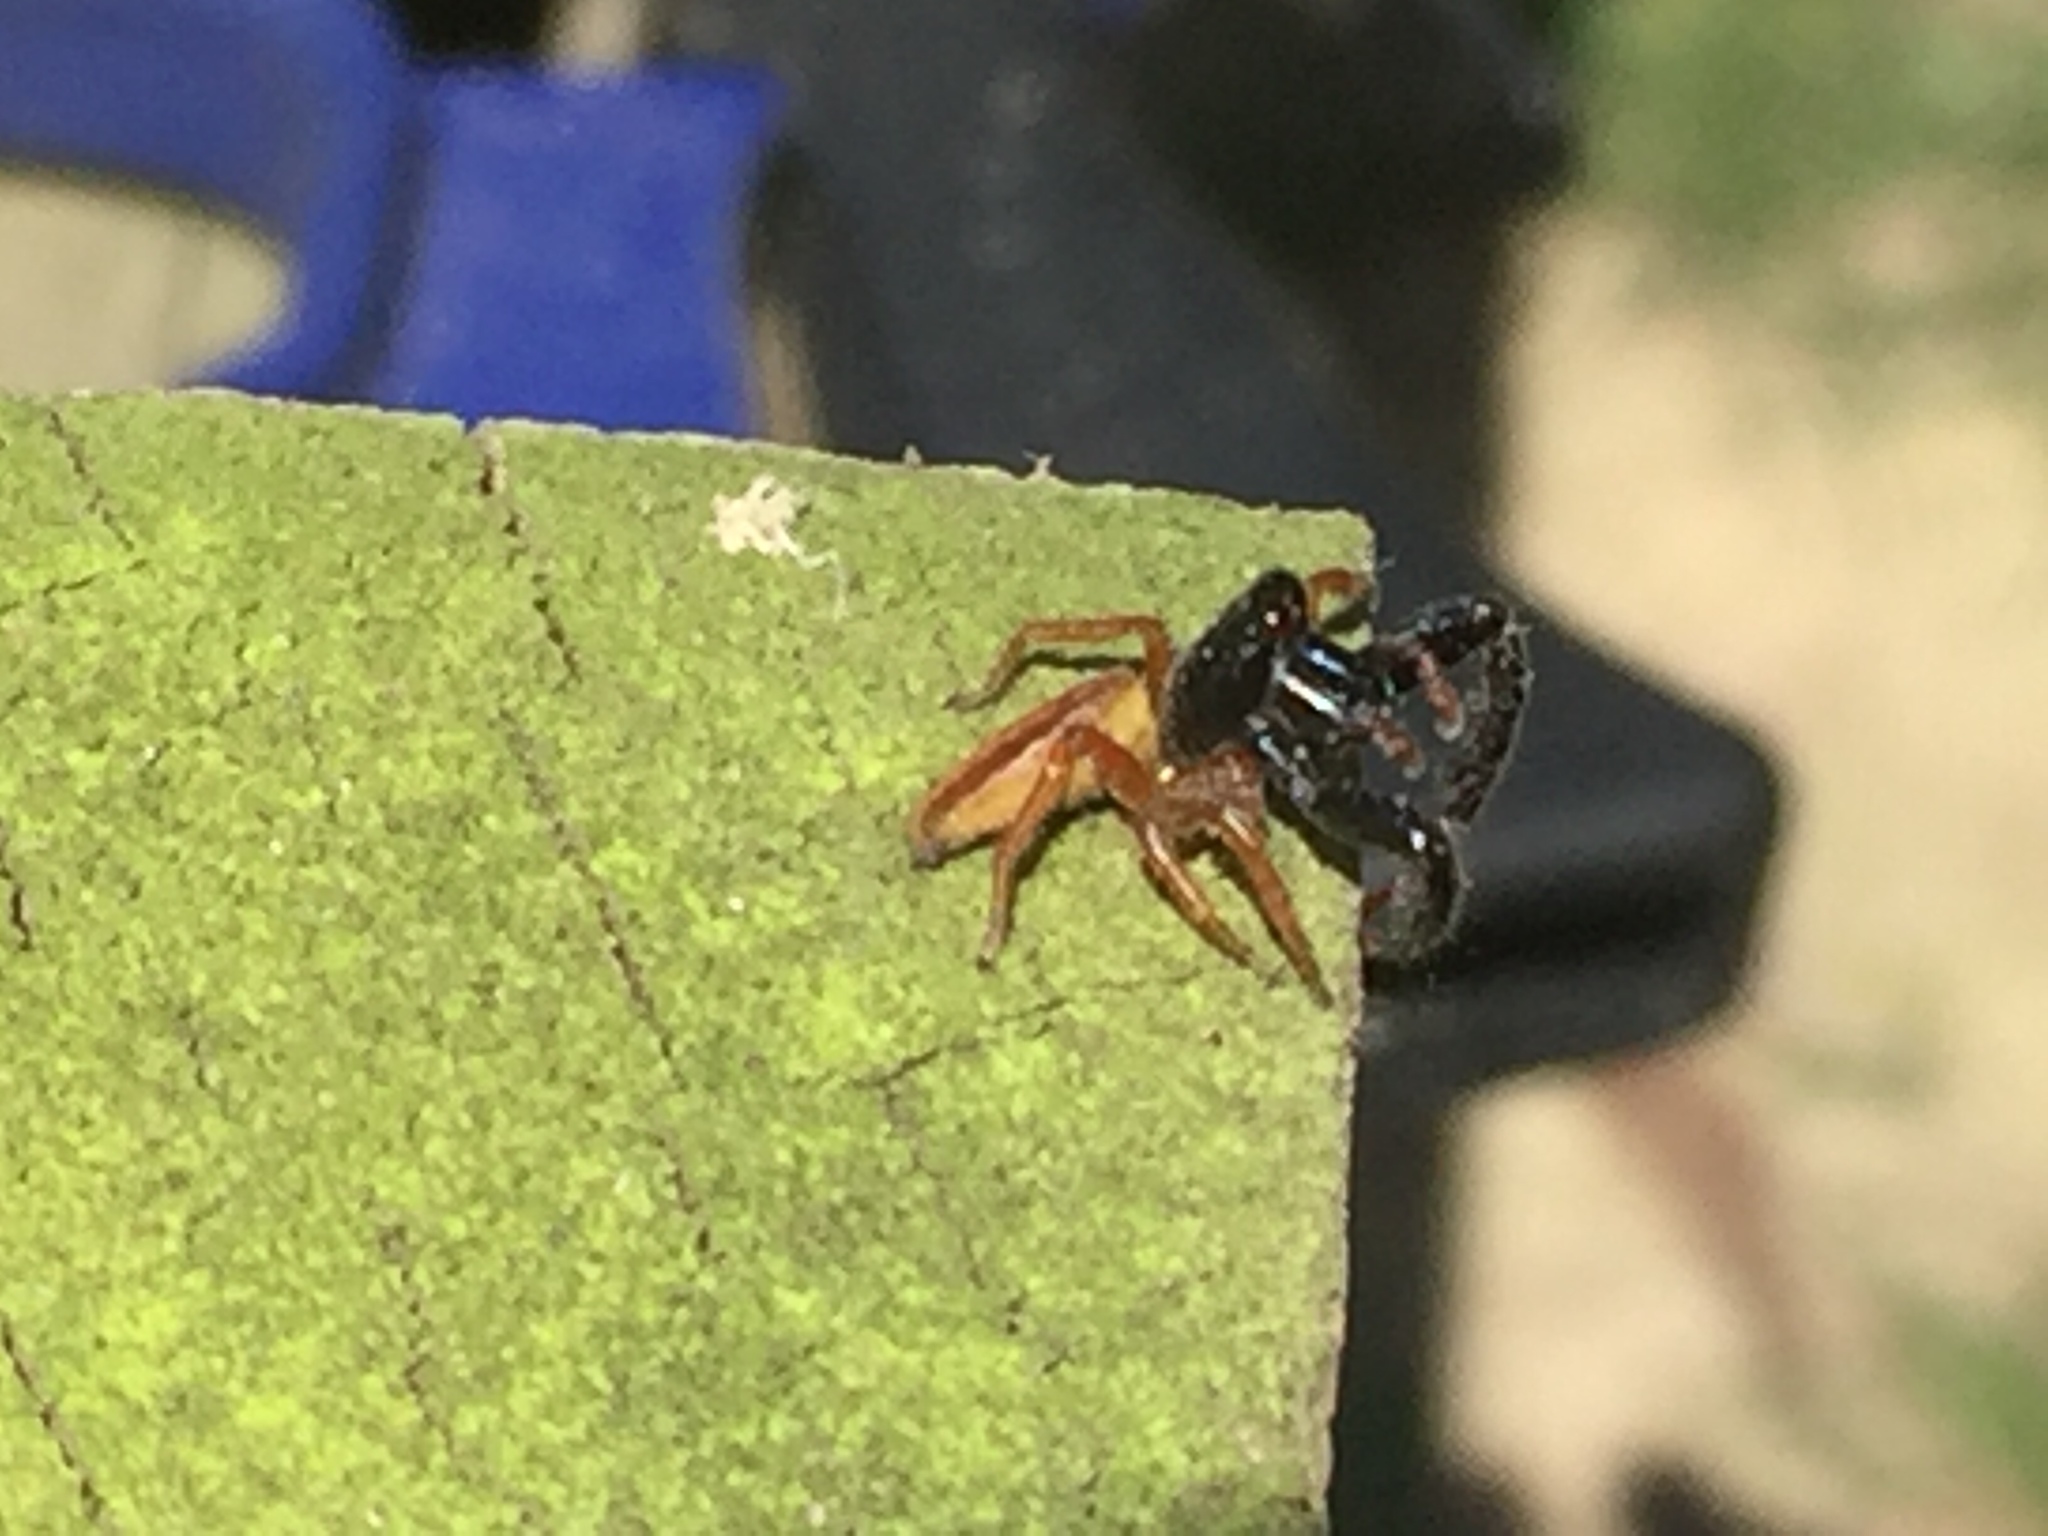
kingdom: Animalia
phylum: Arthropoda
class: Arachnida
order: Araneae
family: Salticidae
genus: Trite
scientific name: Trite planiceps
